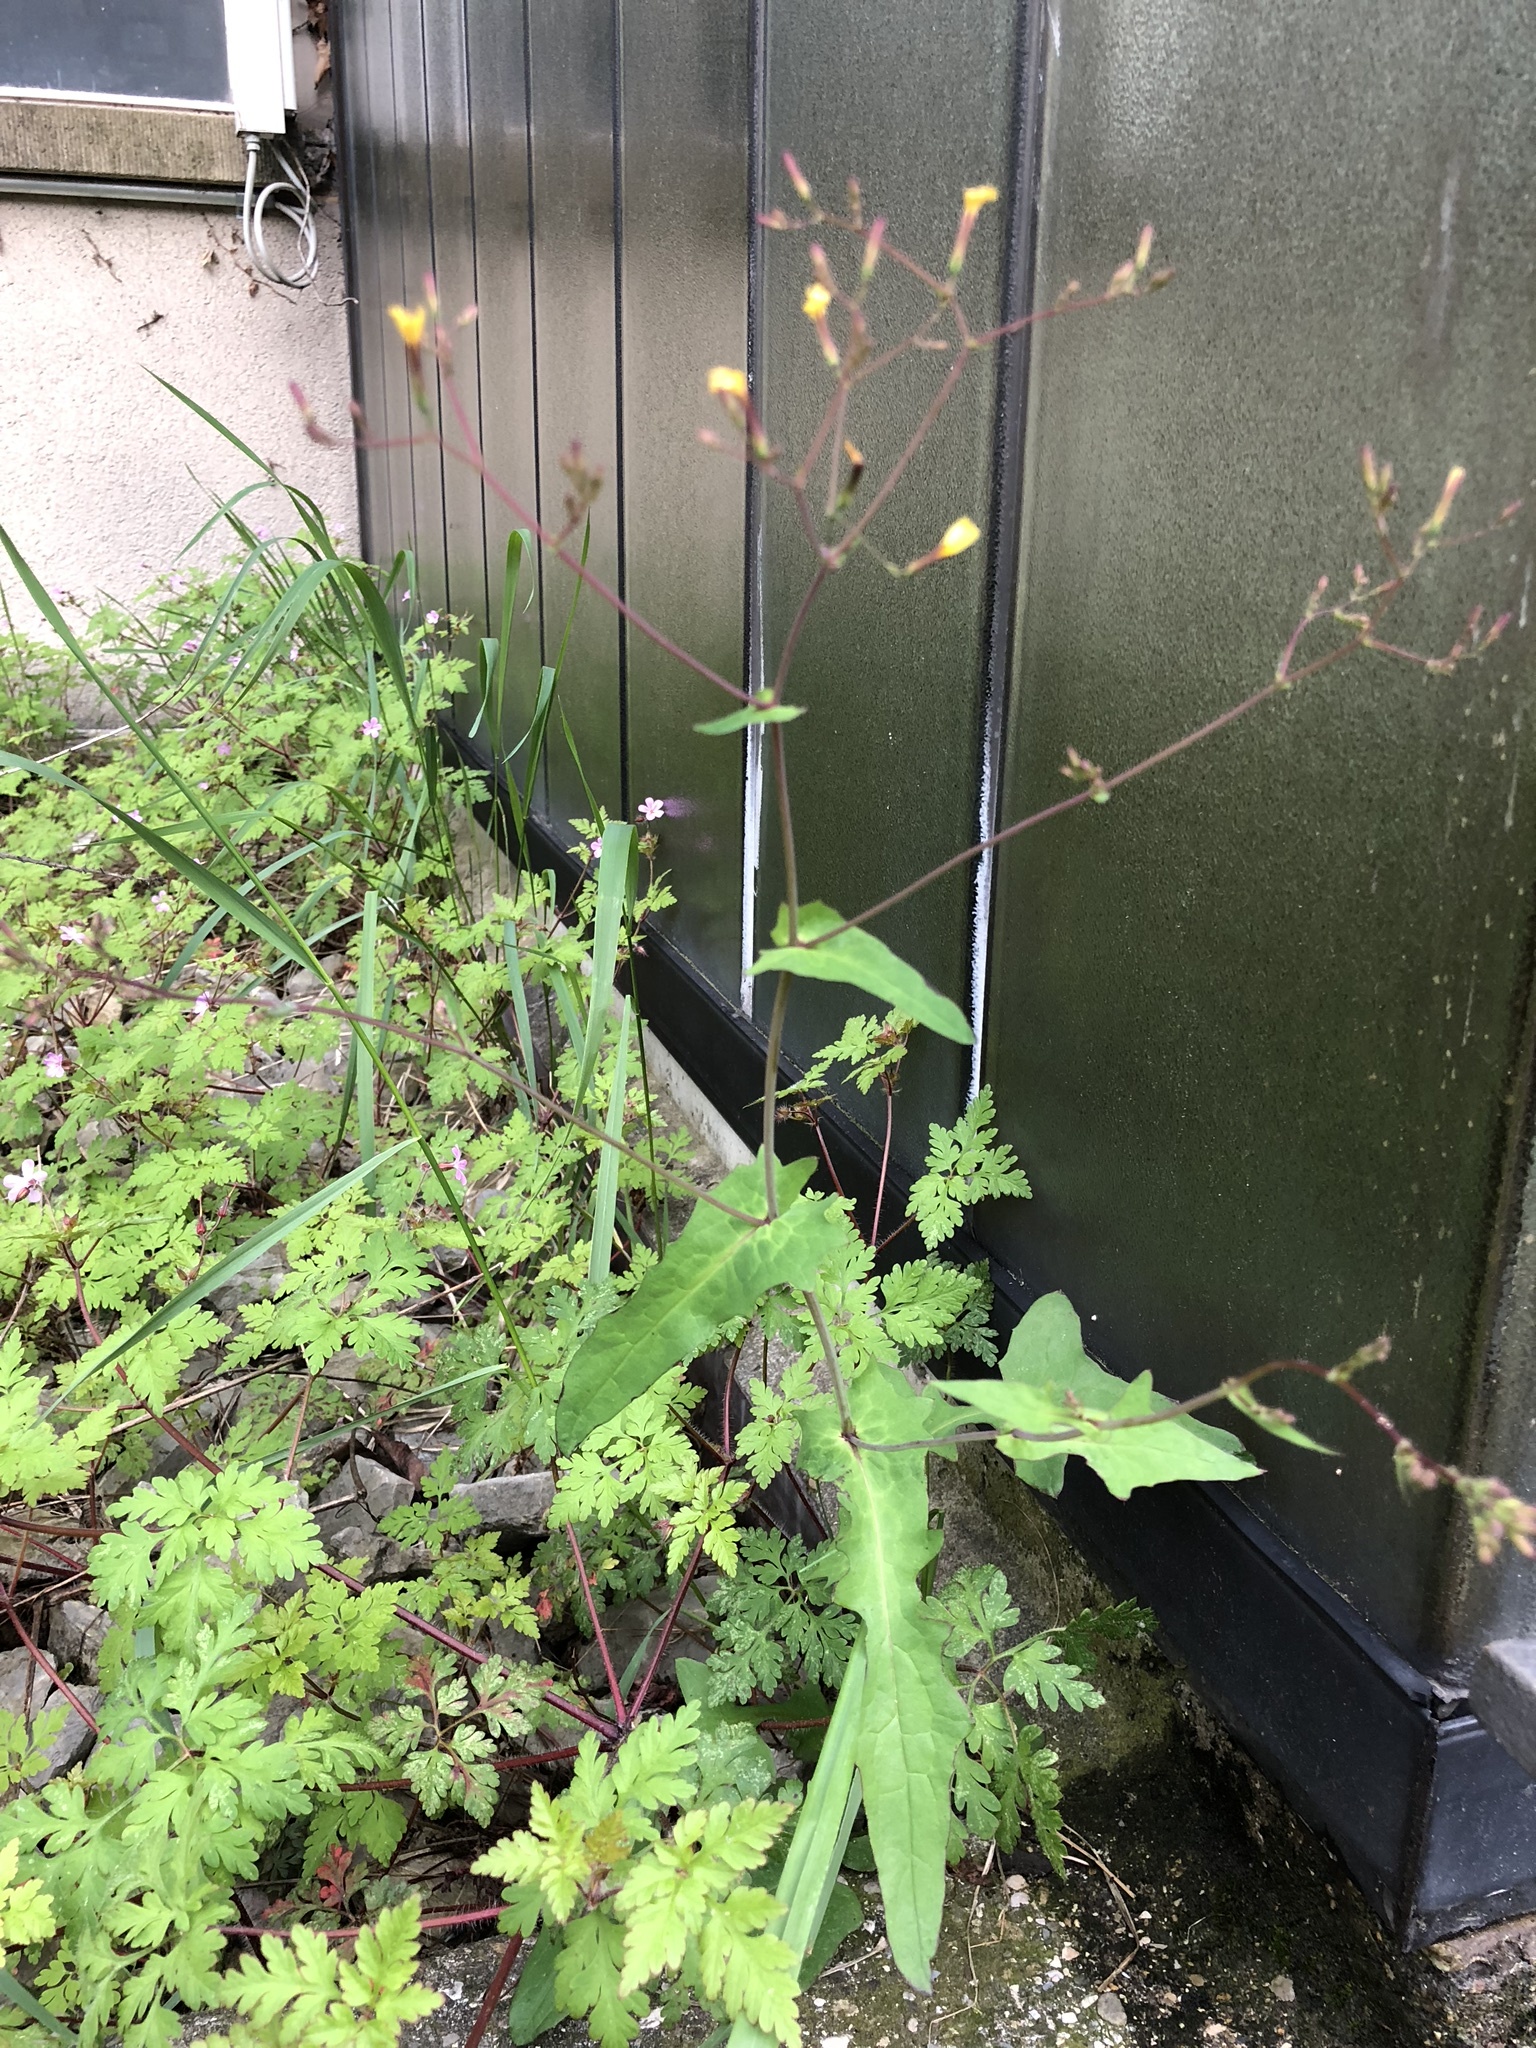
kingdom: Plantae
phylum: Tracheophyta
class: Magnoliopsida
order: Asterales
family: Asteraceae
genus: Mycelis
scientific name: Mycelis muralis
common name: Wall lettuce
